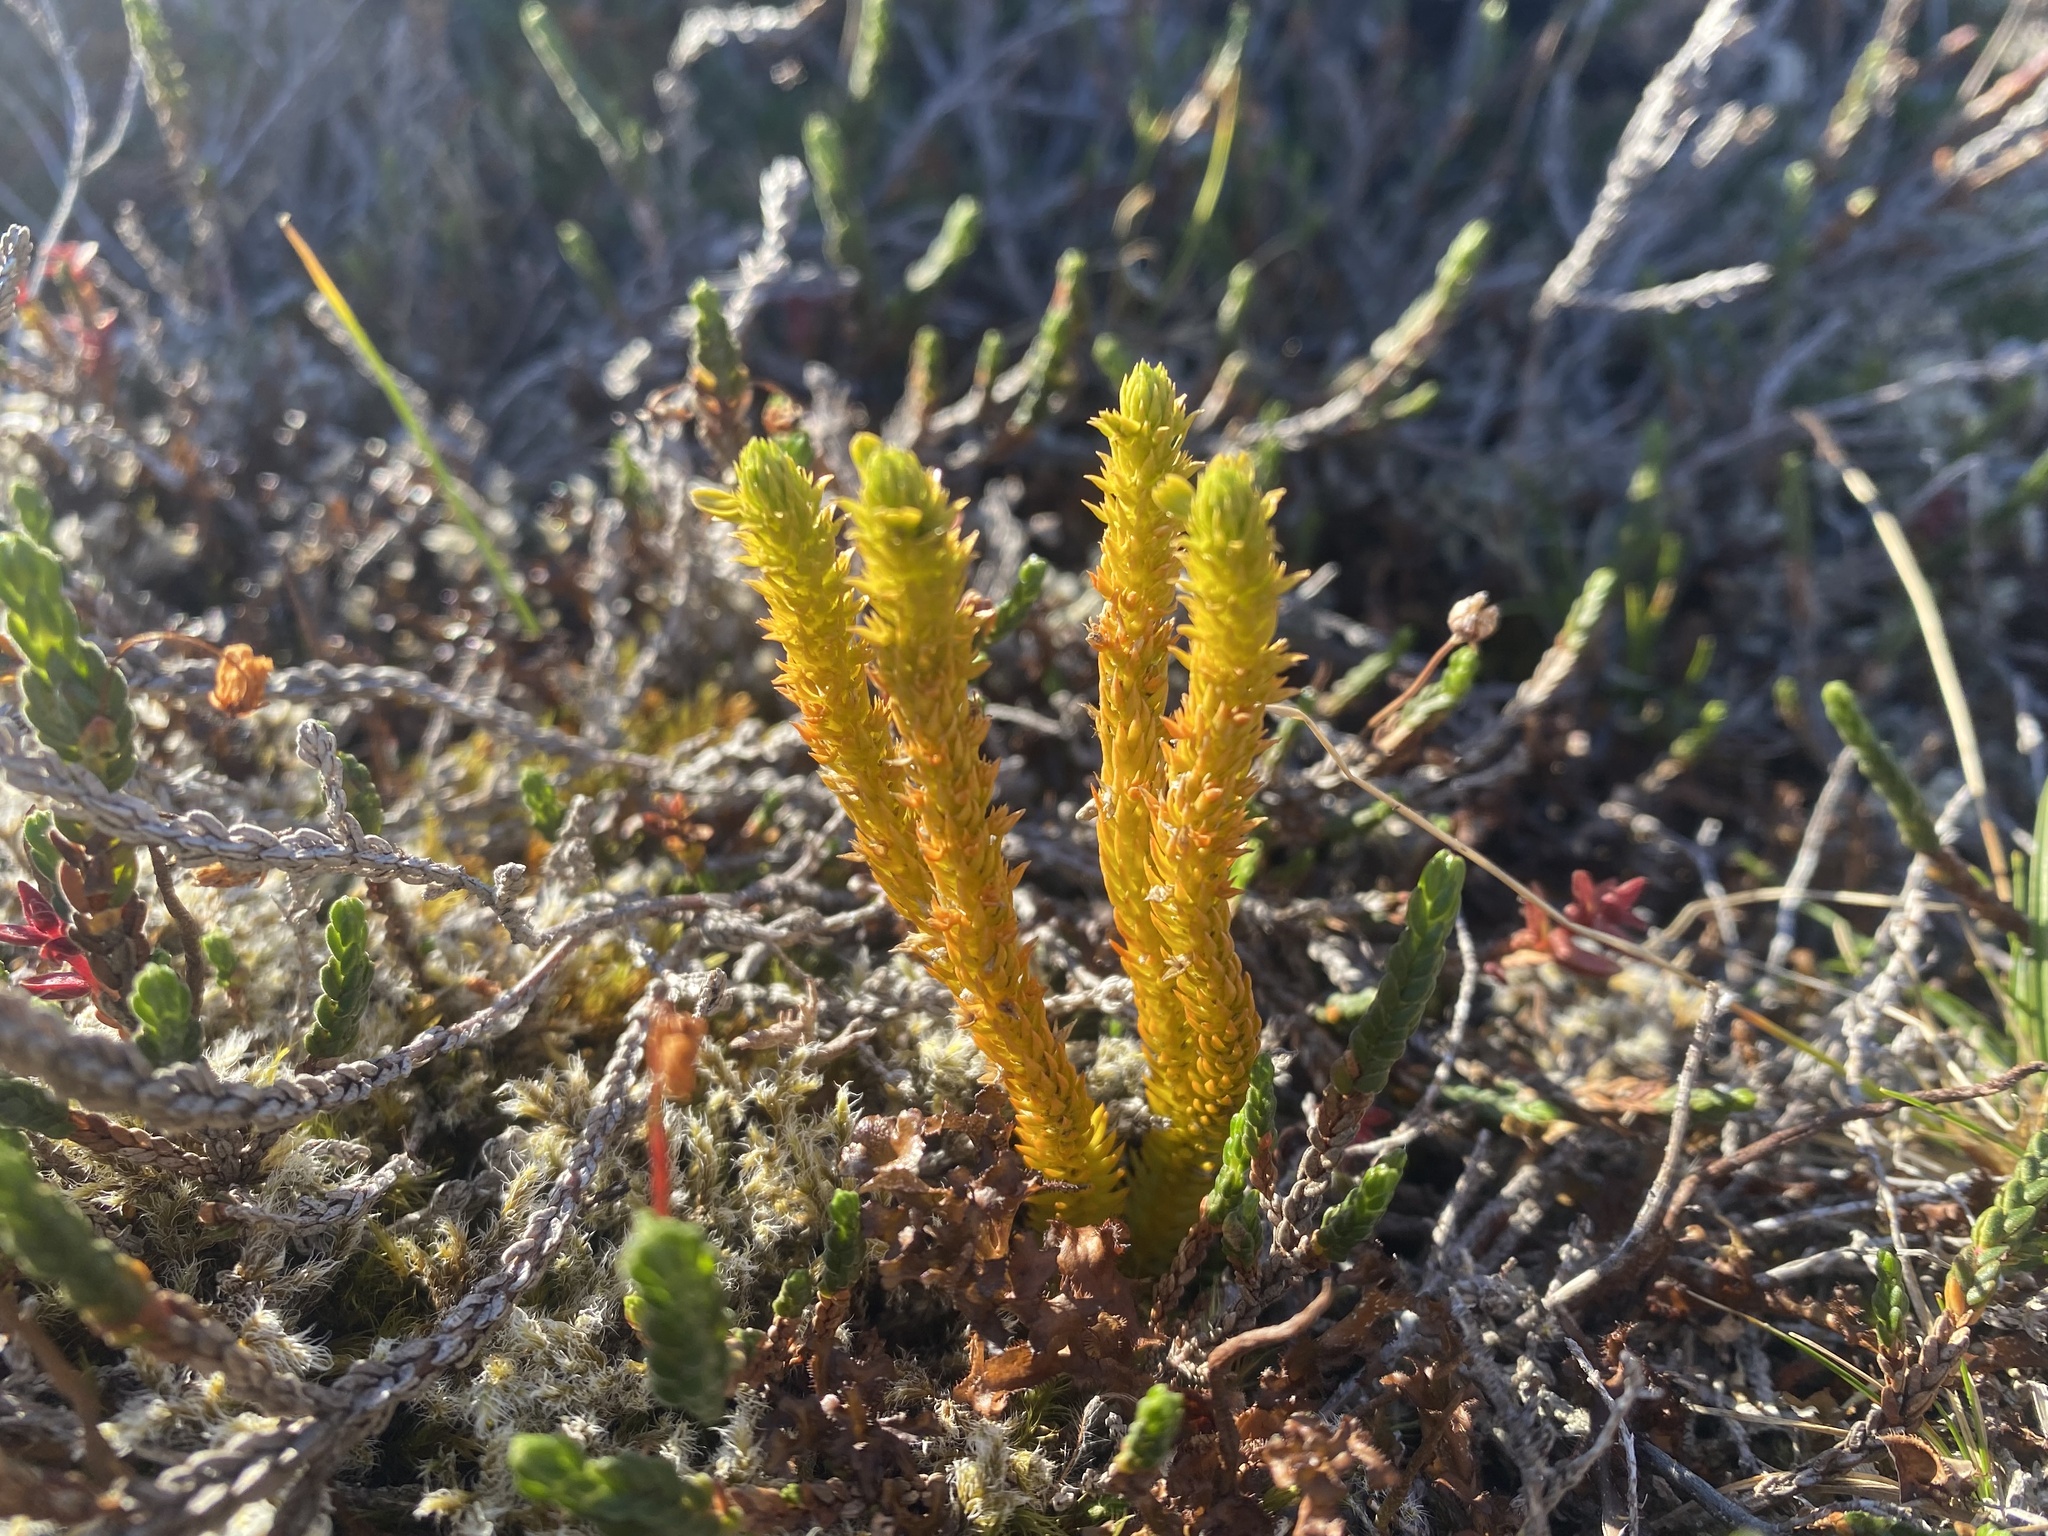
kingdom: Plantae
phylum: Tracheophyta
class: Lycopodiopsida
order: Lycopodiales
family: Lycopodiaceae
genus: Huperzia
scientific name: Huperzia selago
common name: Northern firmoss
